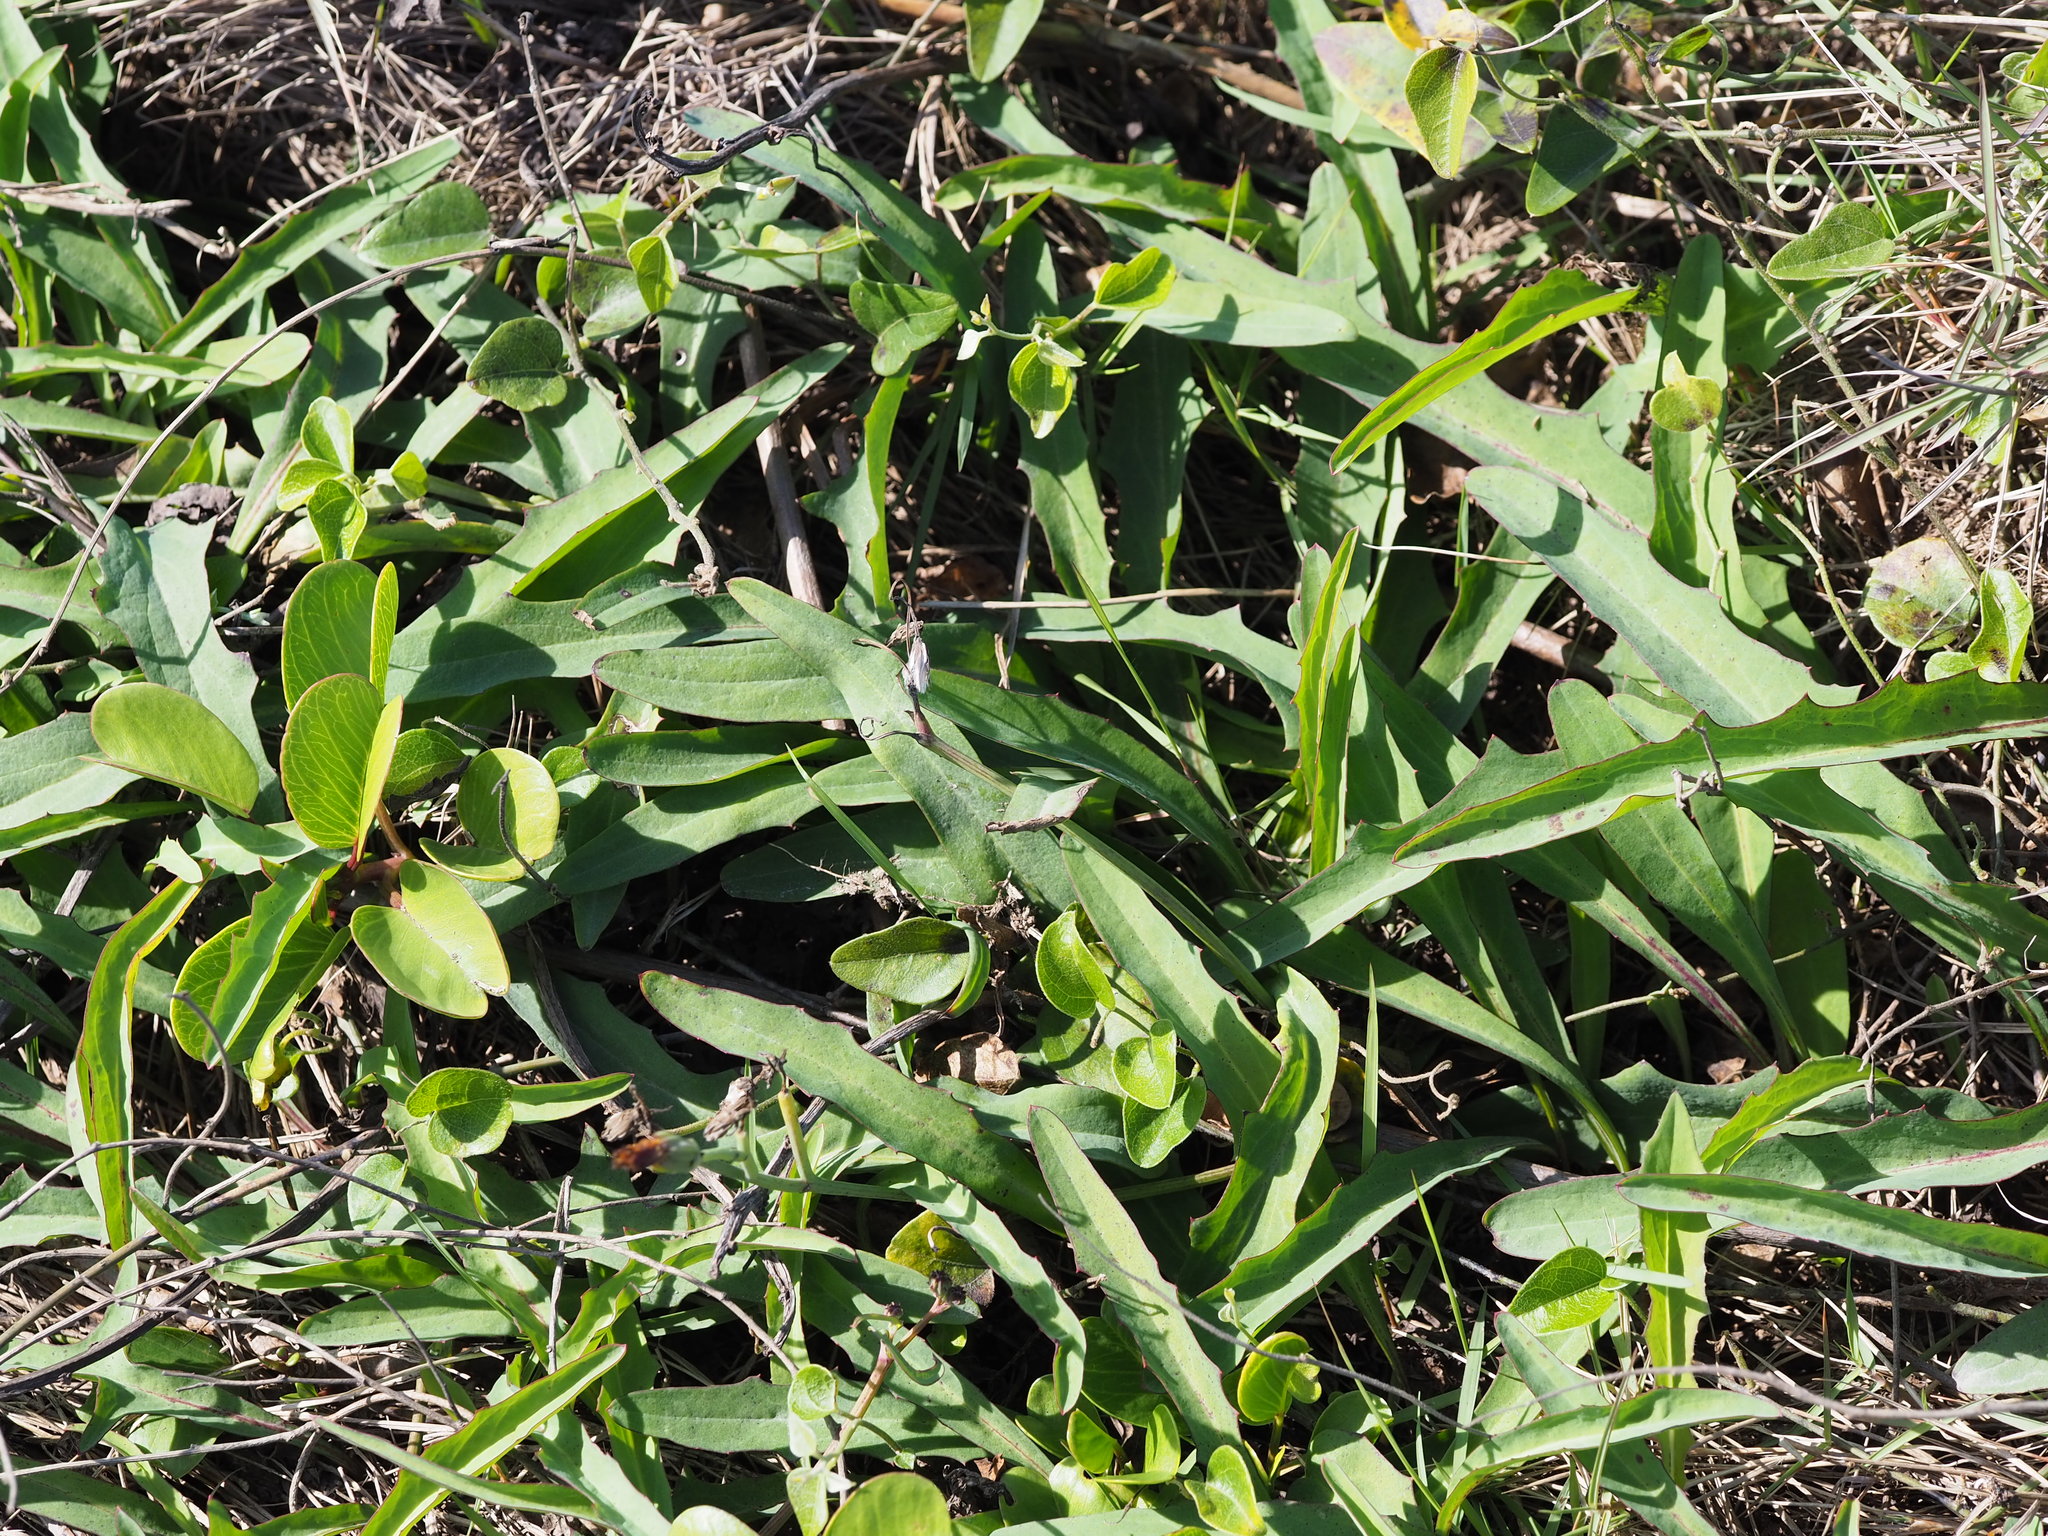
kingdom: Plantae
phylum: Tracheophyta
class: Magnoliopsida
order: Asterales
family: Asteraceae
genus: Ixeris
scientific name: Ixeris japonica
